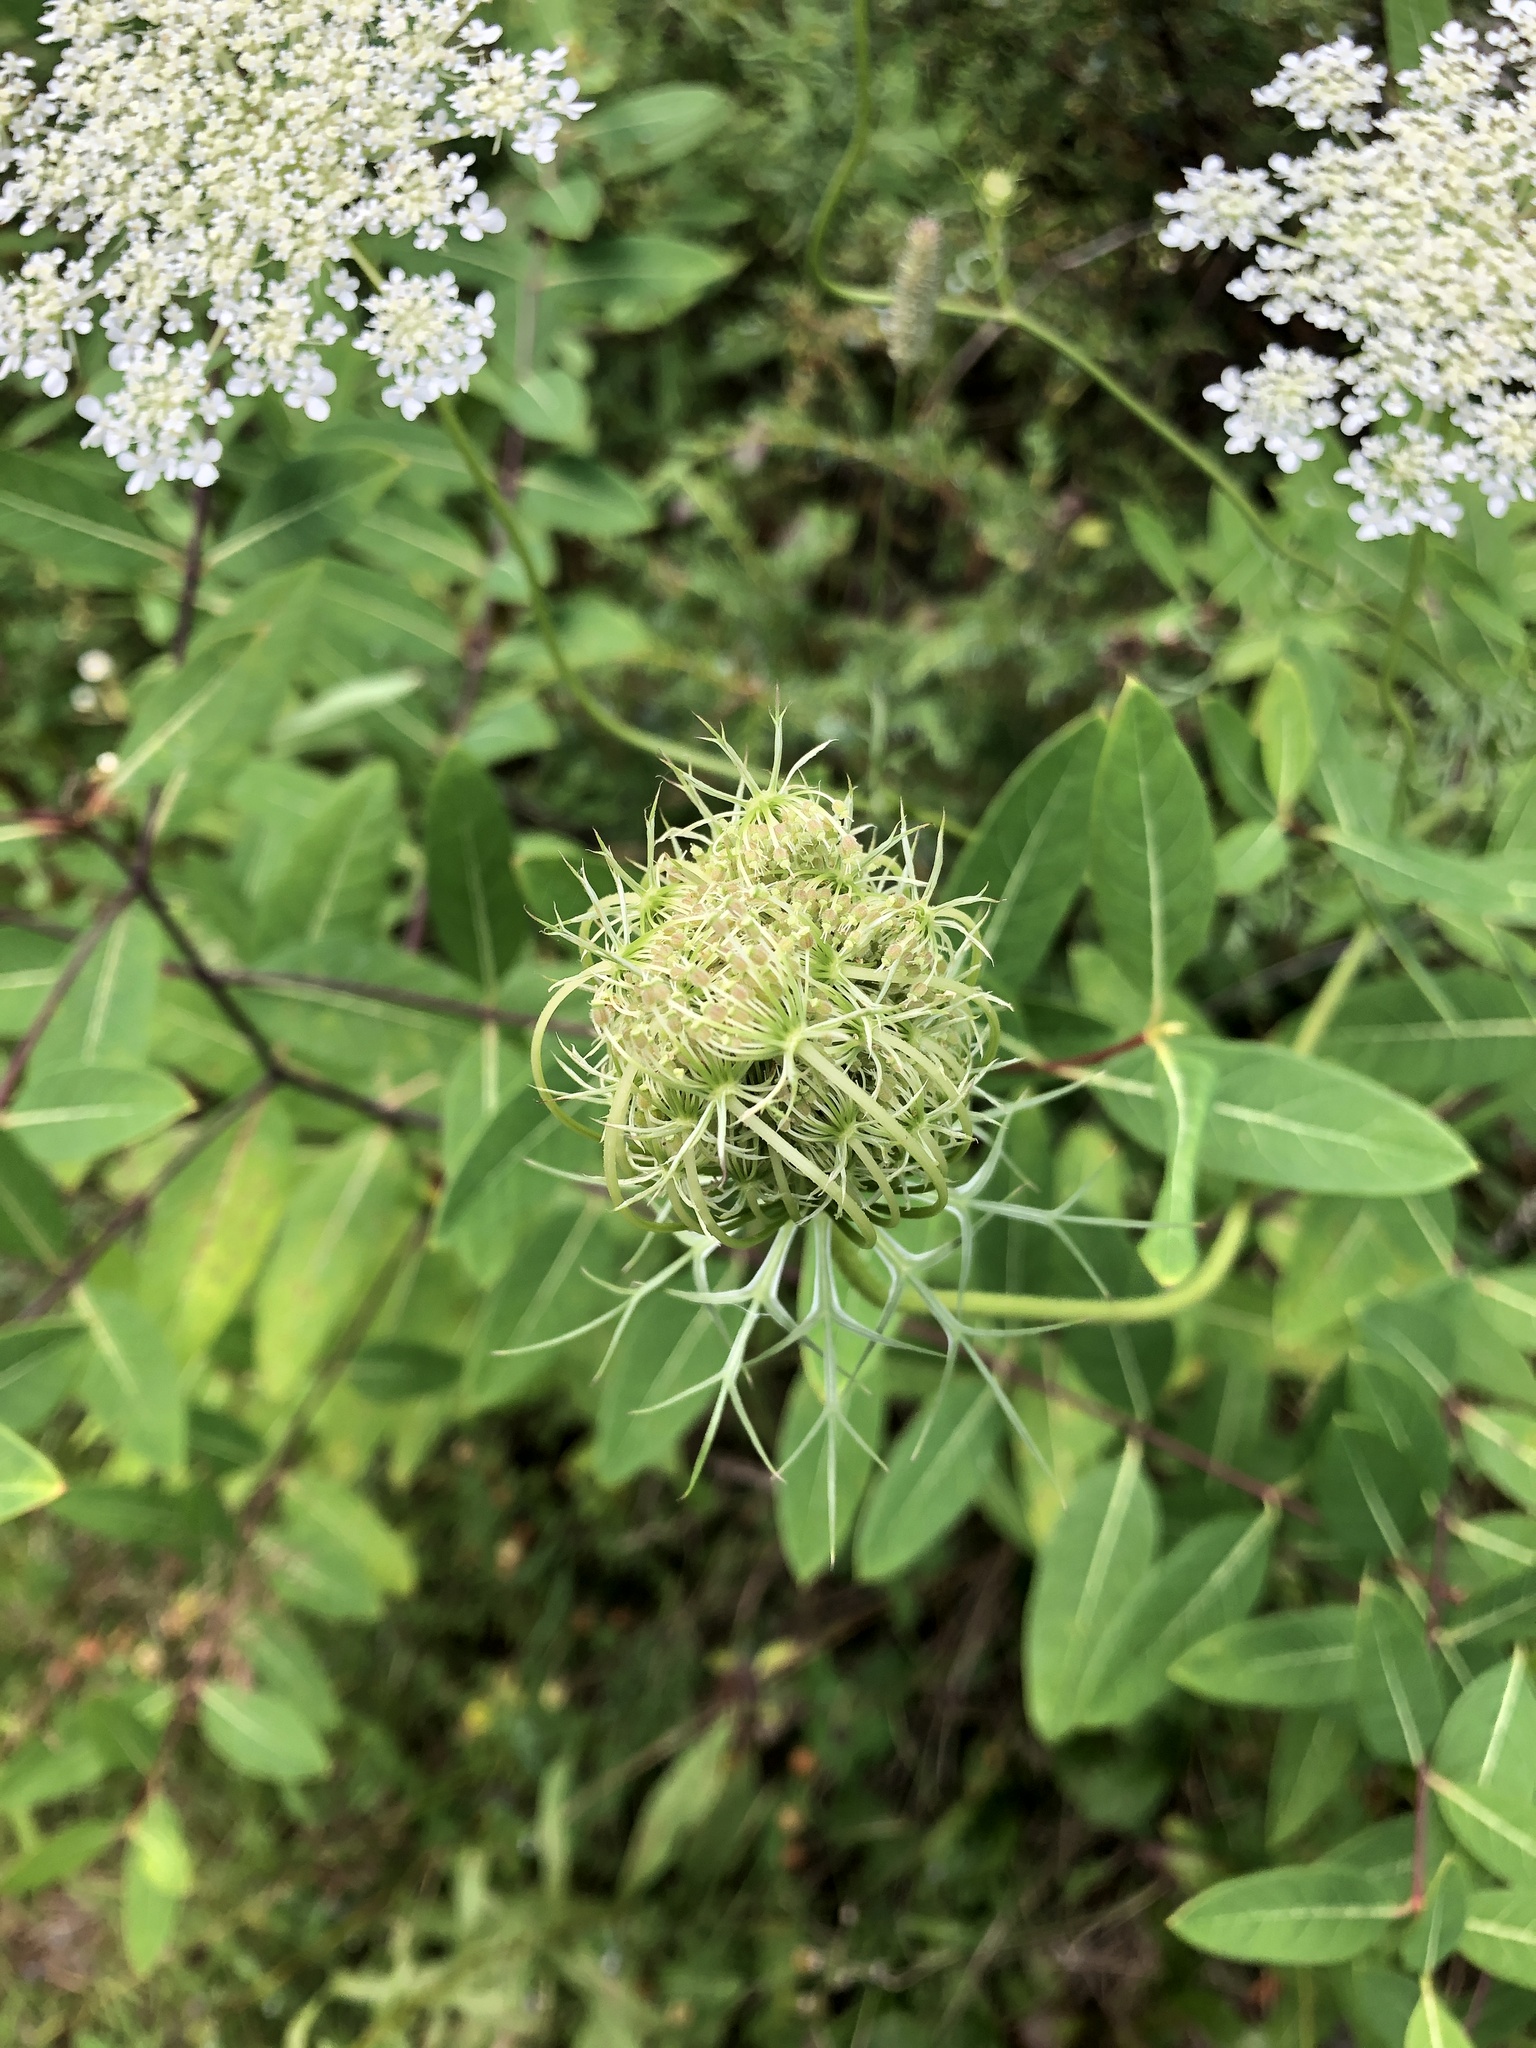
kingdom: Plantae
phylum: Tracheophyta
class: Magnoliopsida
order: Apiales
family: Apiaceae
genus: Daucus
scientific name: Daucus carota
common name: Wild carrot
